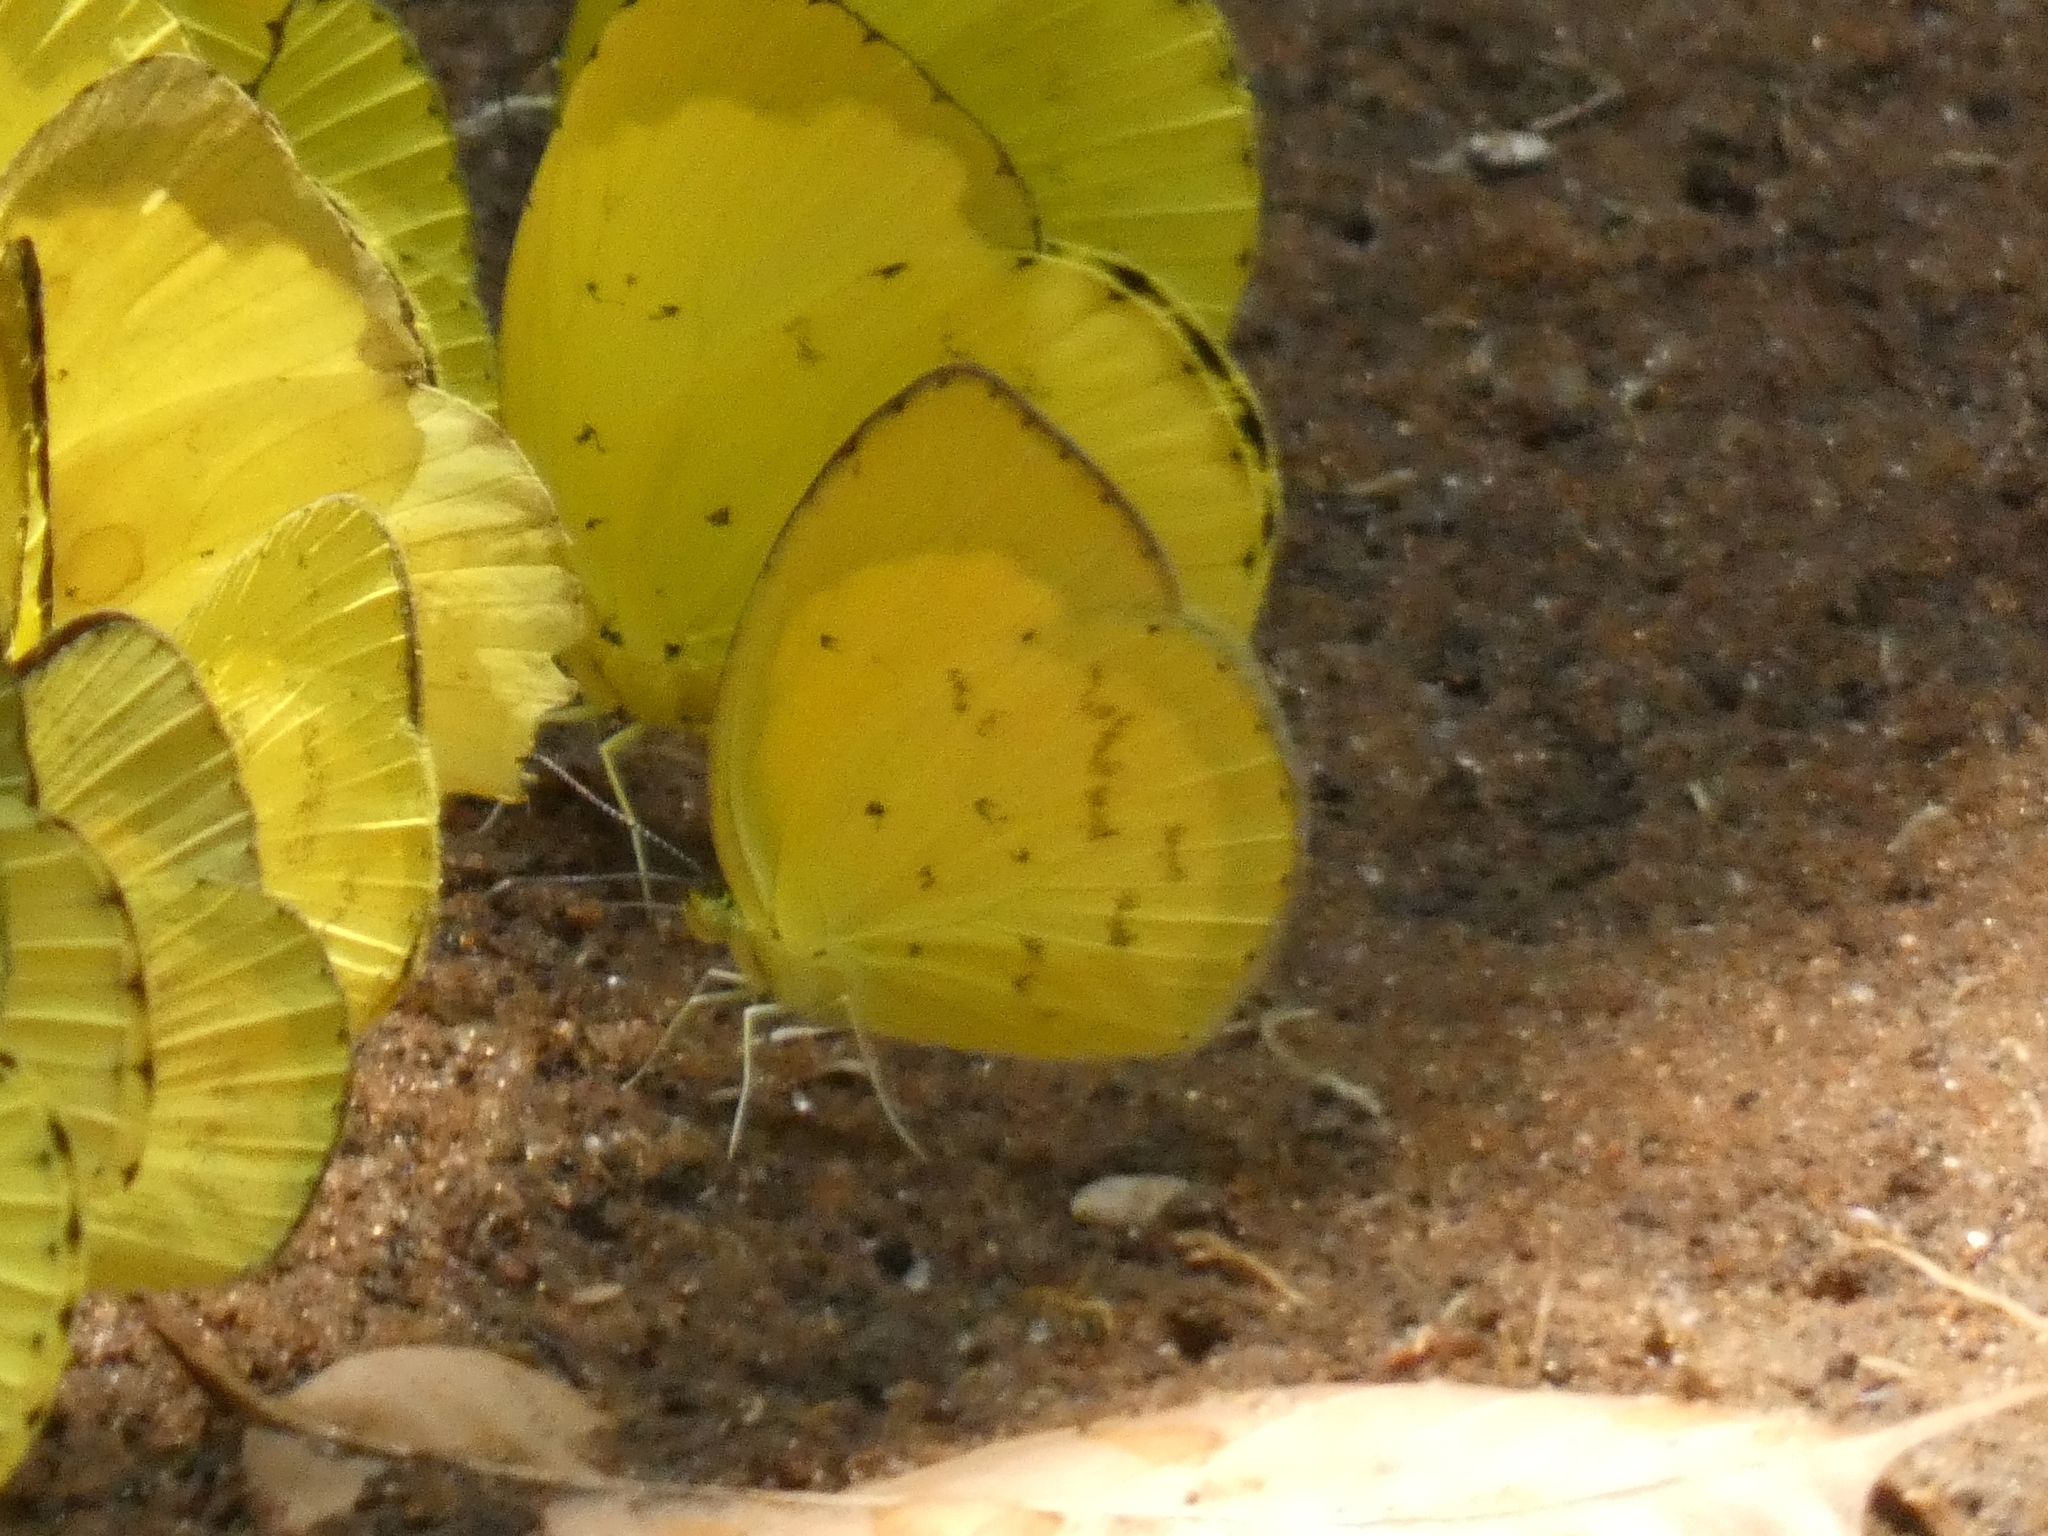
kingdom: Animalia
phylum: Arthropoda
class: Insecta
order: Lepidoptera
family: Pieridae
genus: Eurema
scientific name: Eurema regularis
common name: Regular grass yellow
